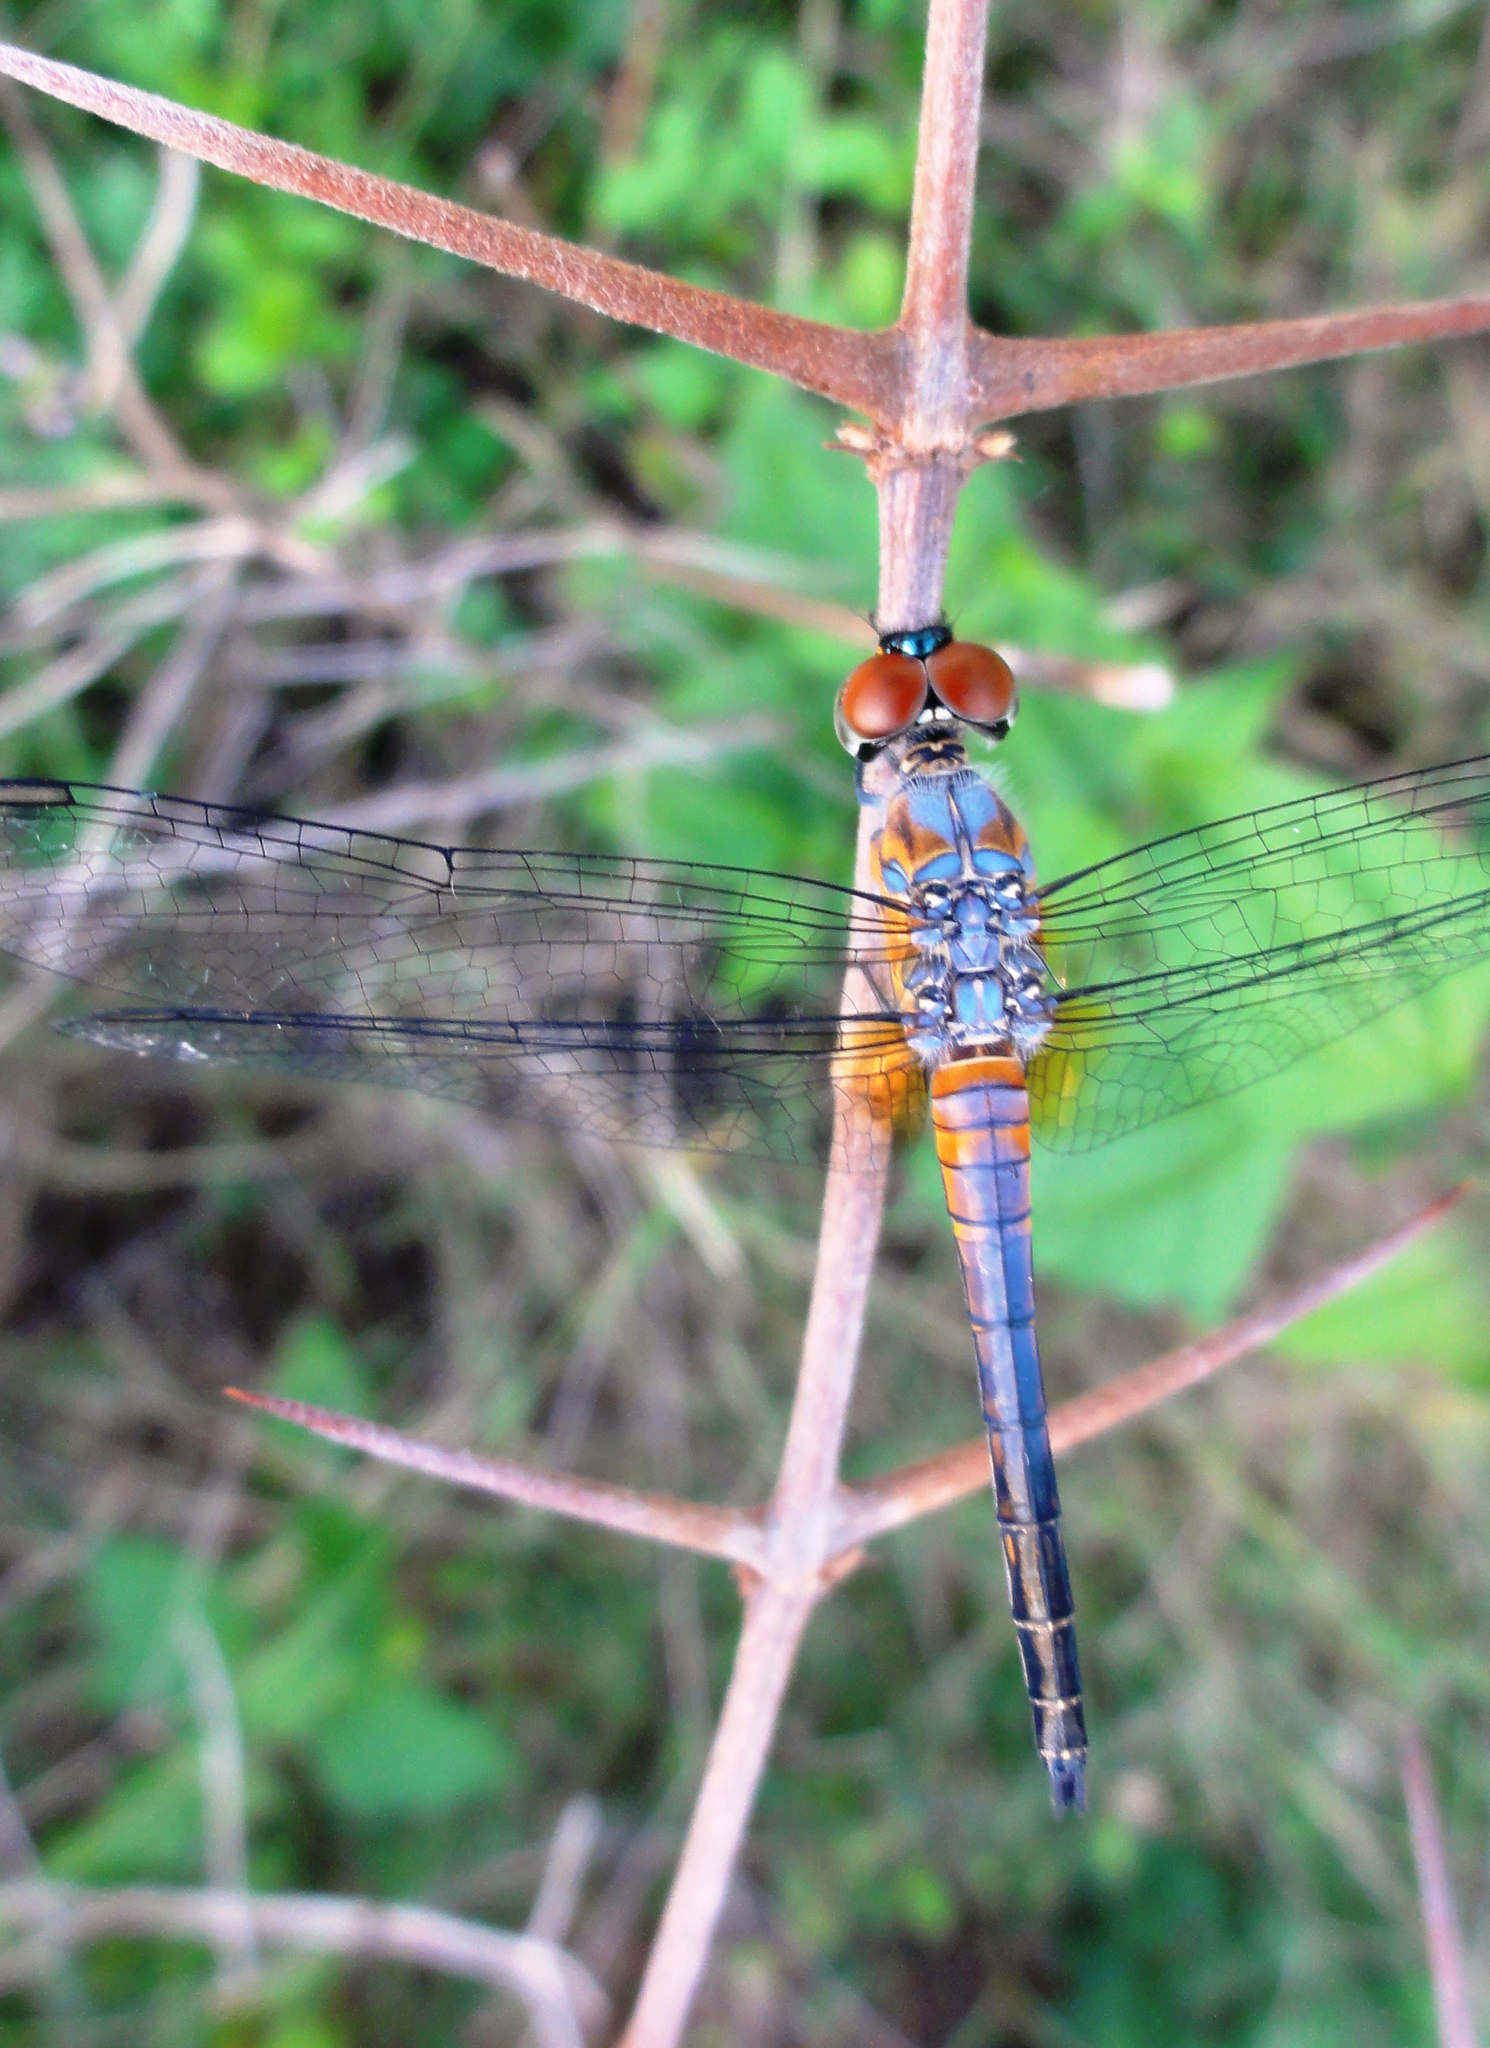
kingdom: Animalia
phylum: Arthropoda
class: Insecta
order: Odonata
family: Libellulidae
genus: Brachydiplax
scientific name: Brachydiplax chalybea
